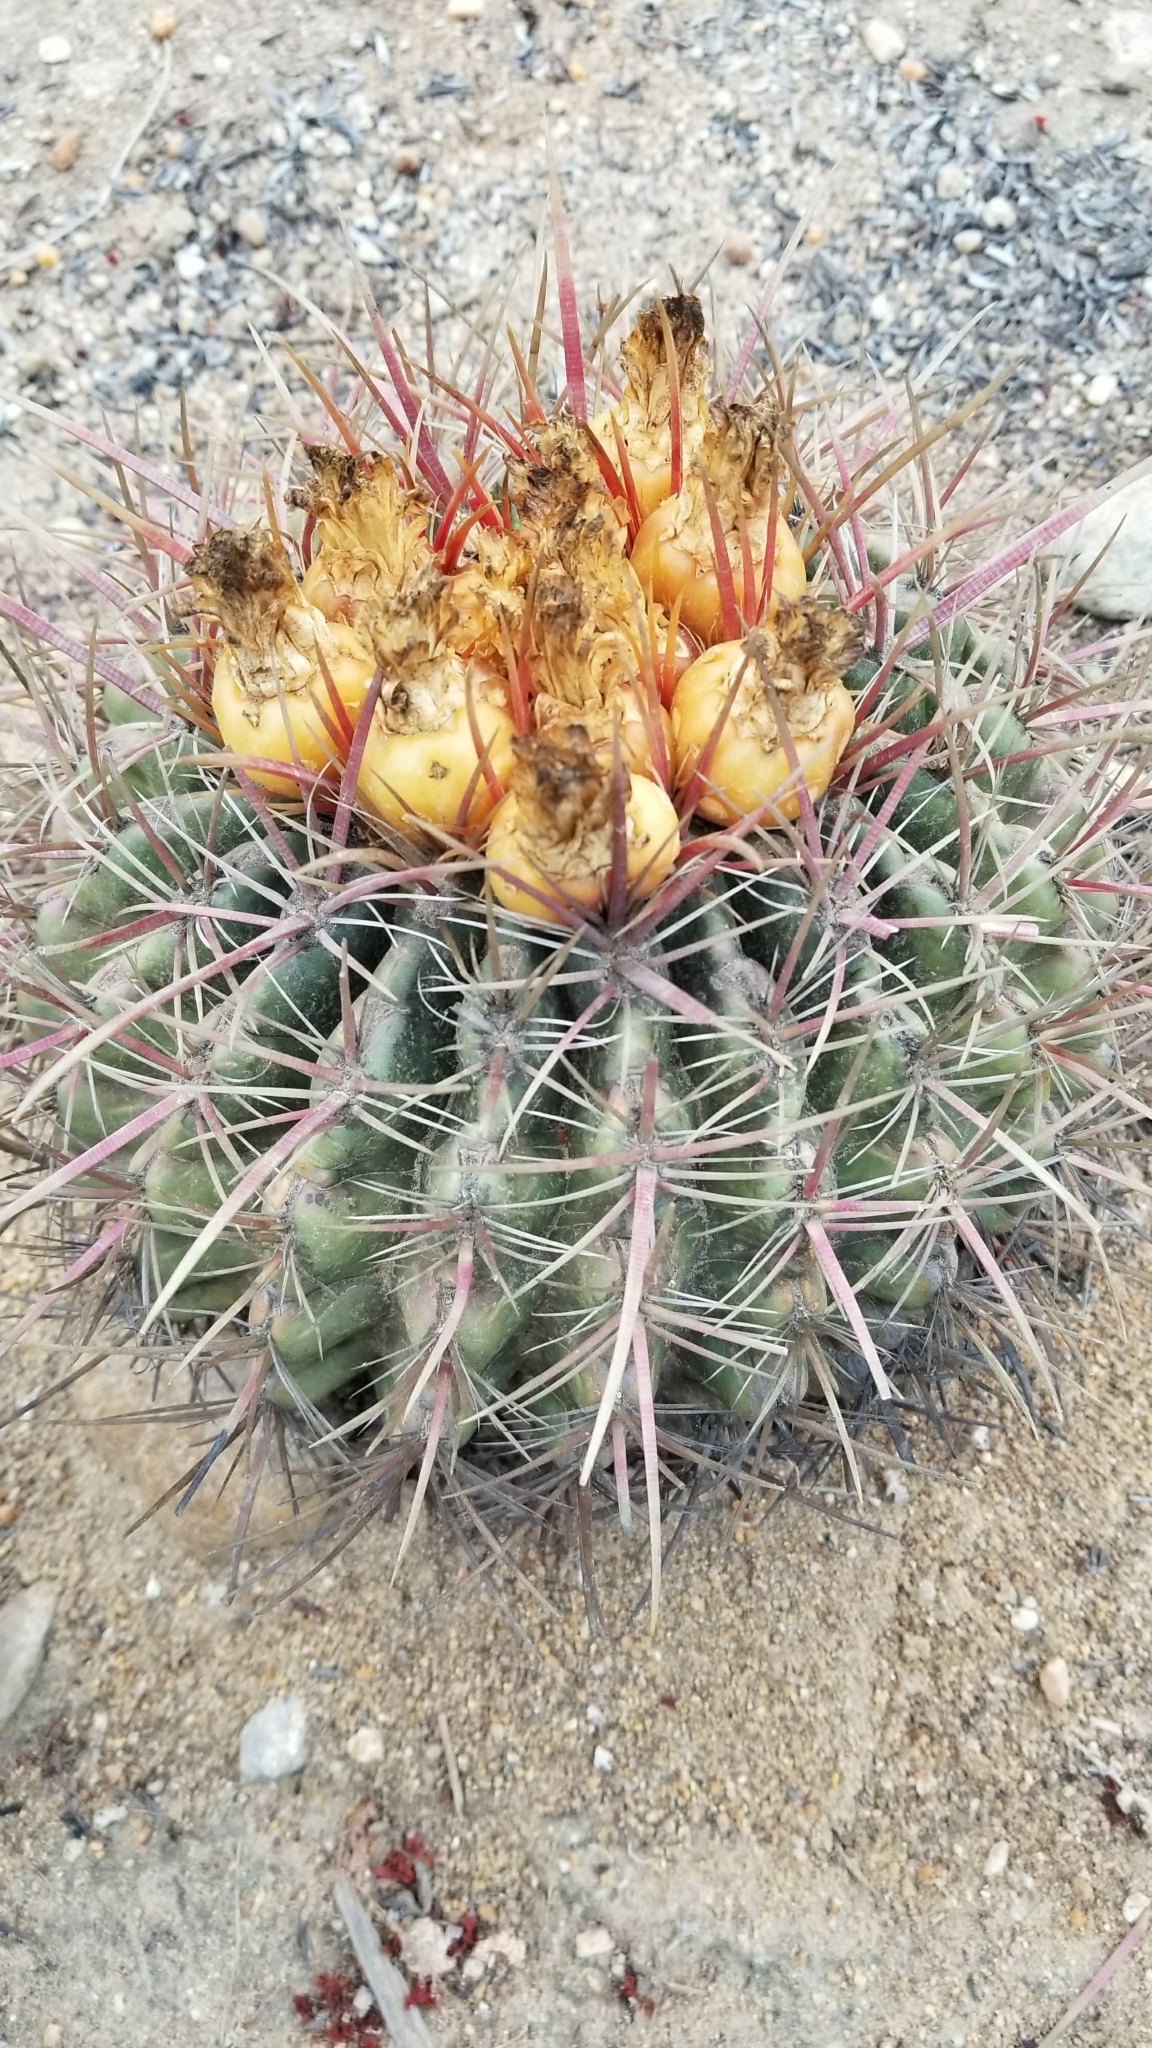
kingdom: Plantae
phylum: Tracheophyta
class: Magnoliopsida
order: Caryophyllales
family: Cactaceae
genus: Ferocactus
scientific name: Ferocactus viridescens
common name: San diego barrel cactus
